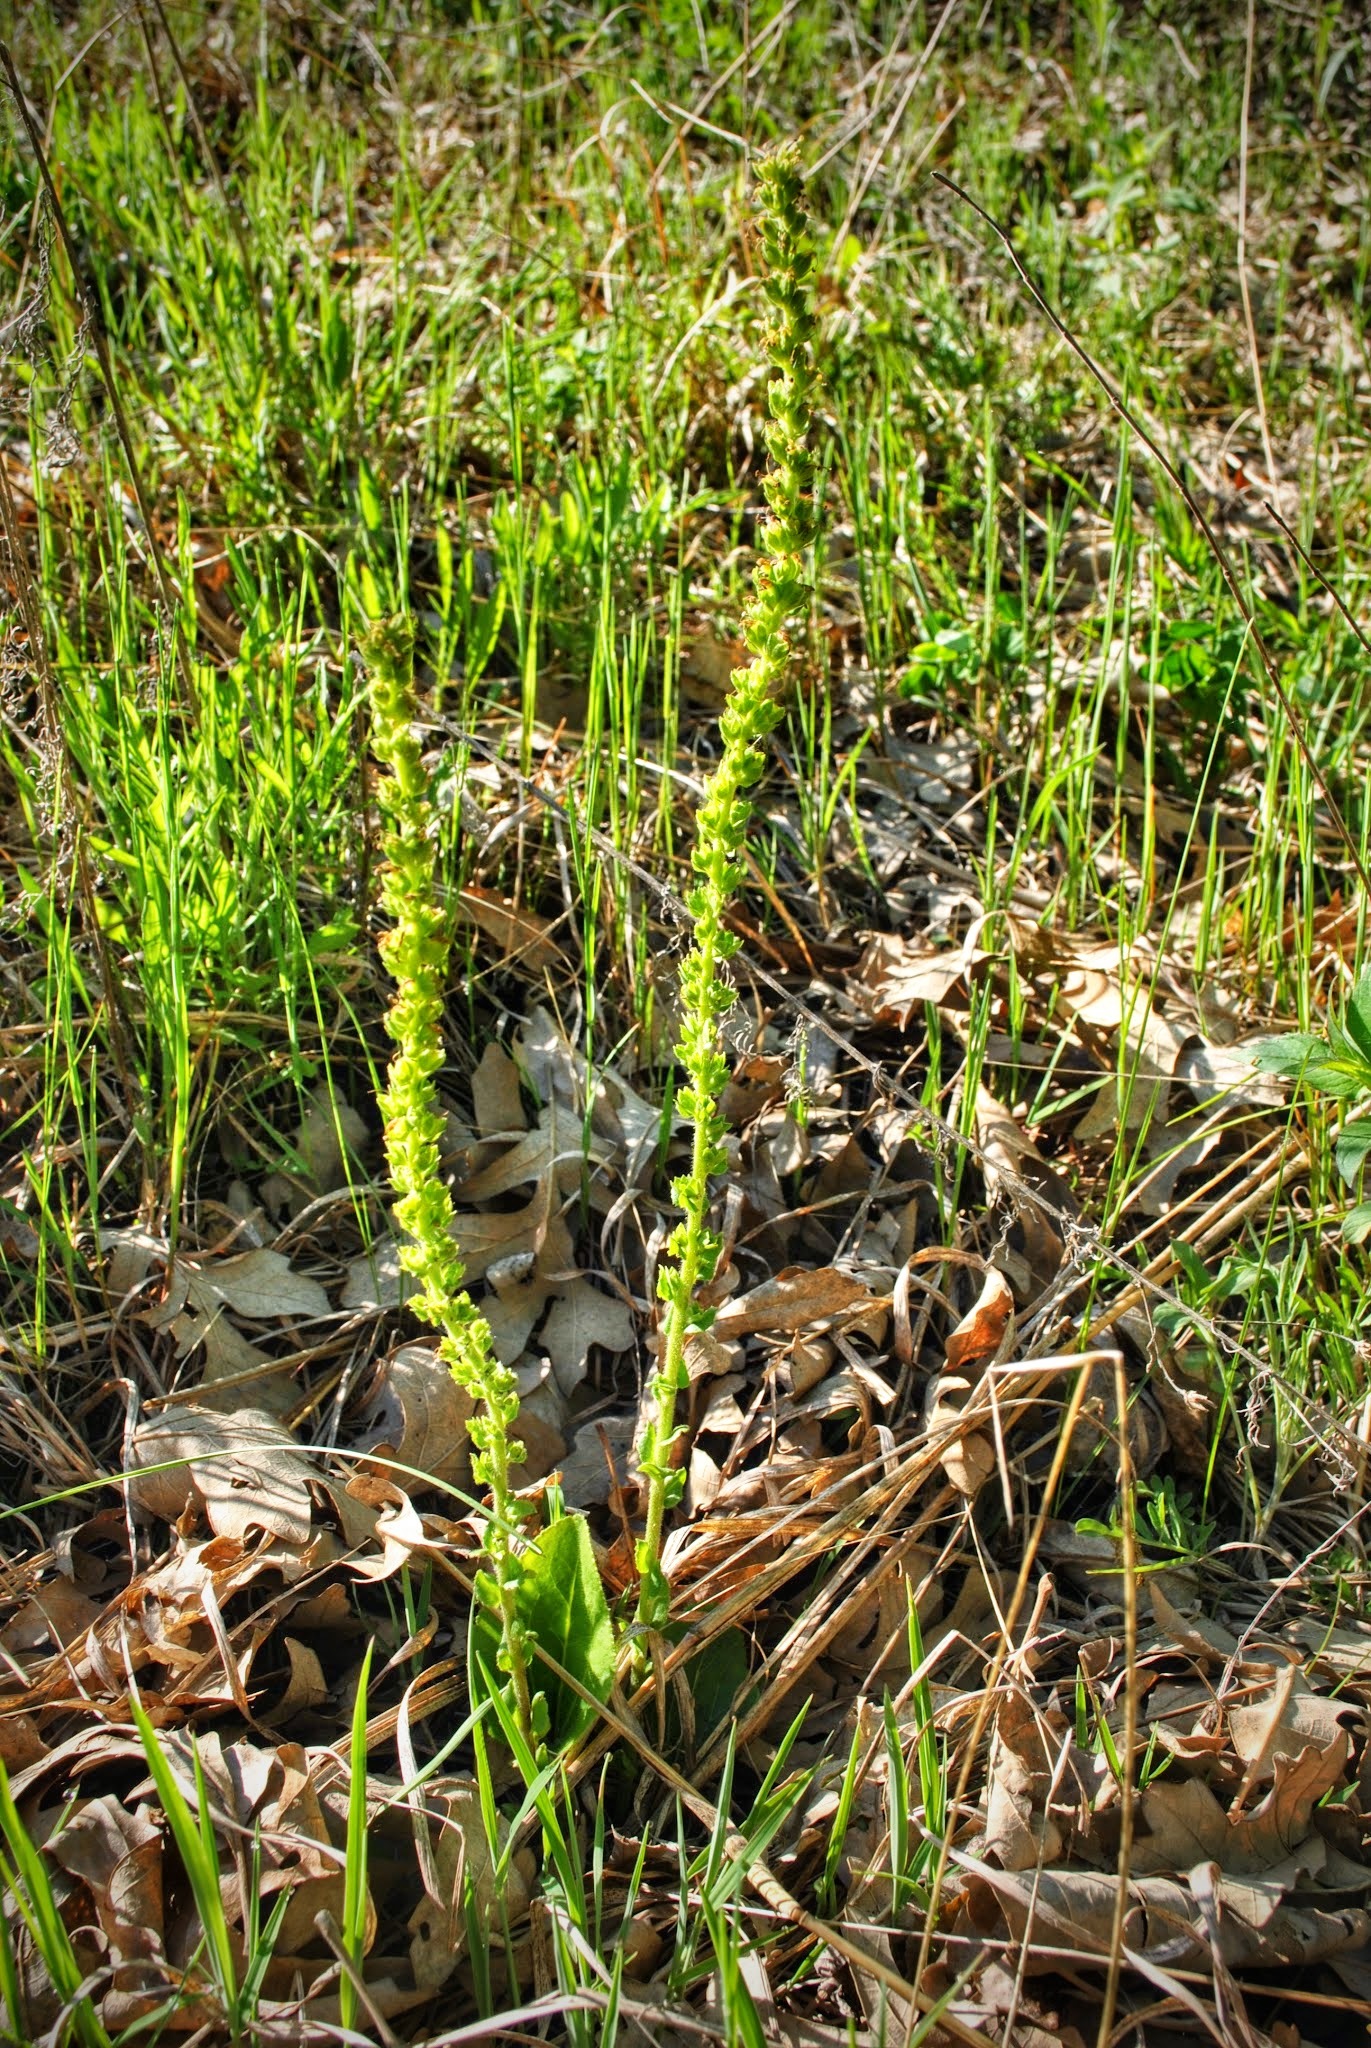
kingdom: Plantae
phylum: Tracheophyta
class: Magnoliopsida
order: Lamiales
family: Plantaginaceae
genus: Synthyris
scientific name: Synthyris bullii
